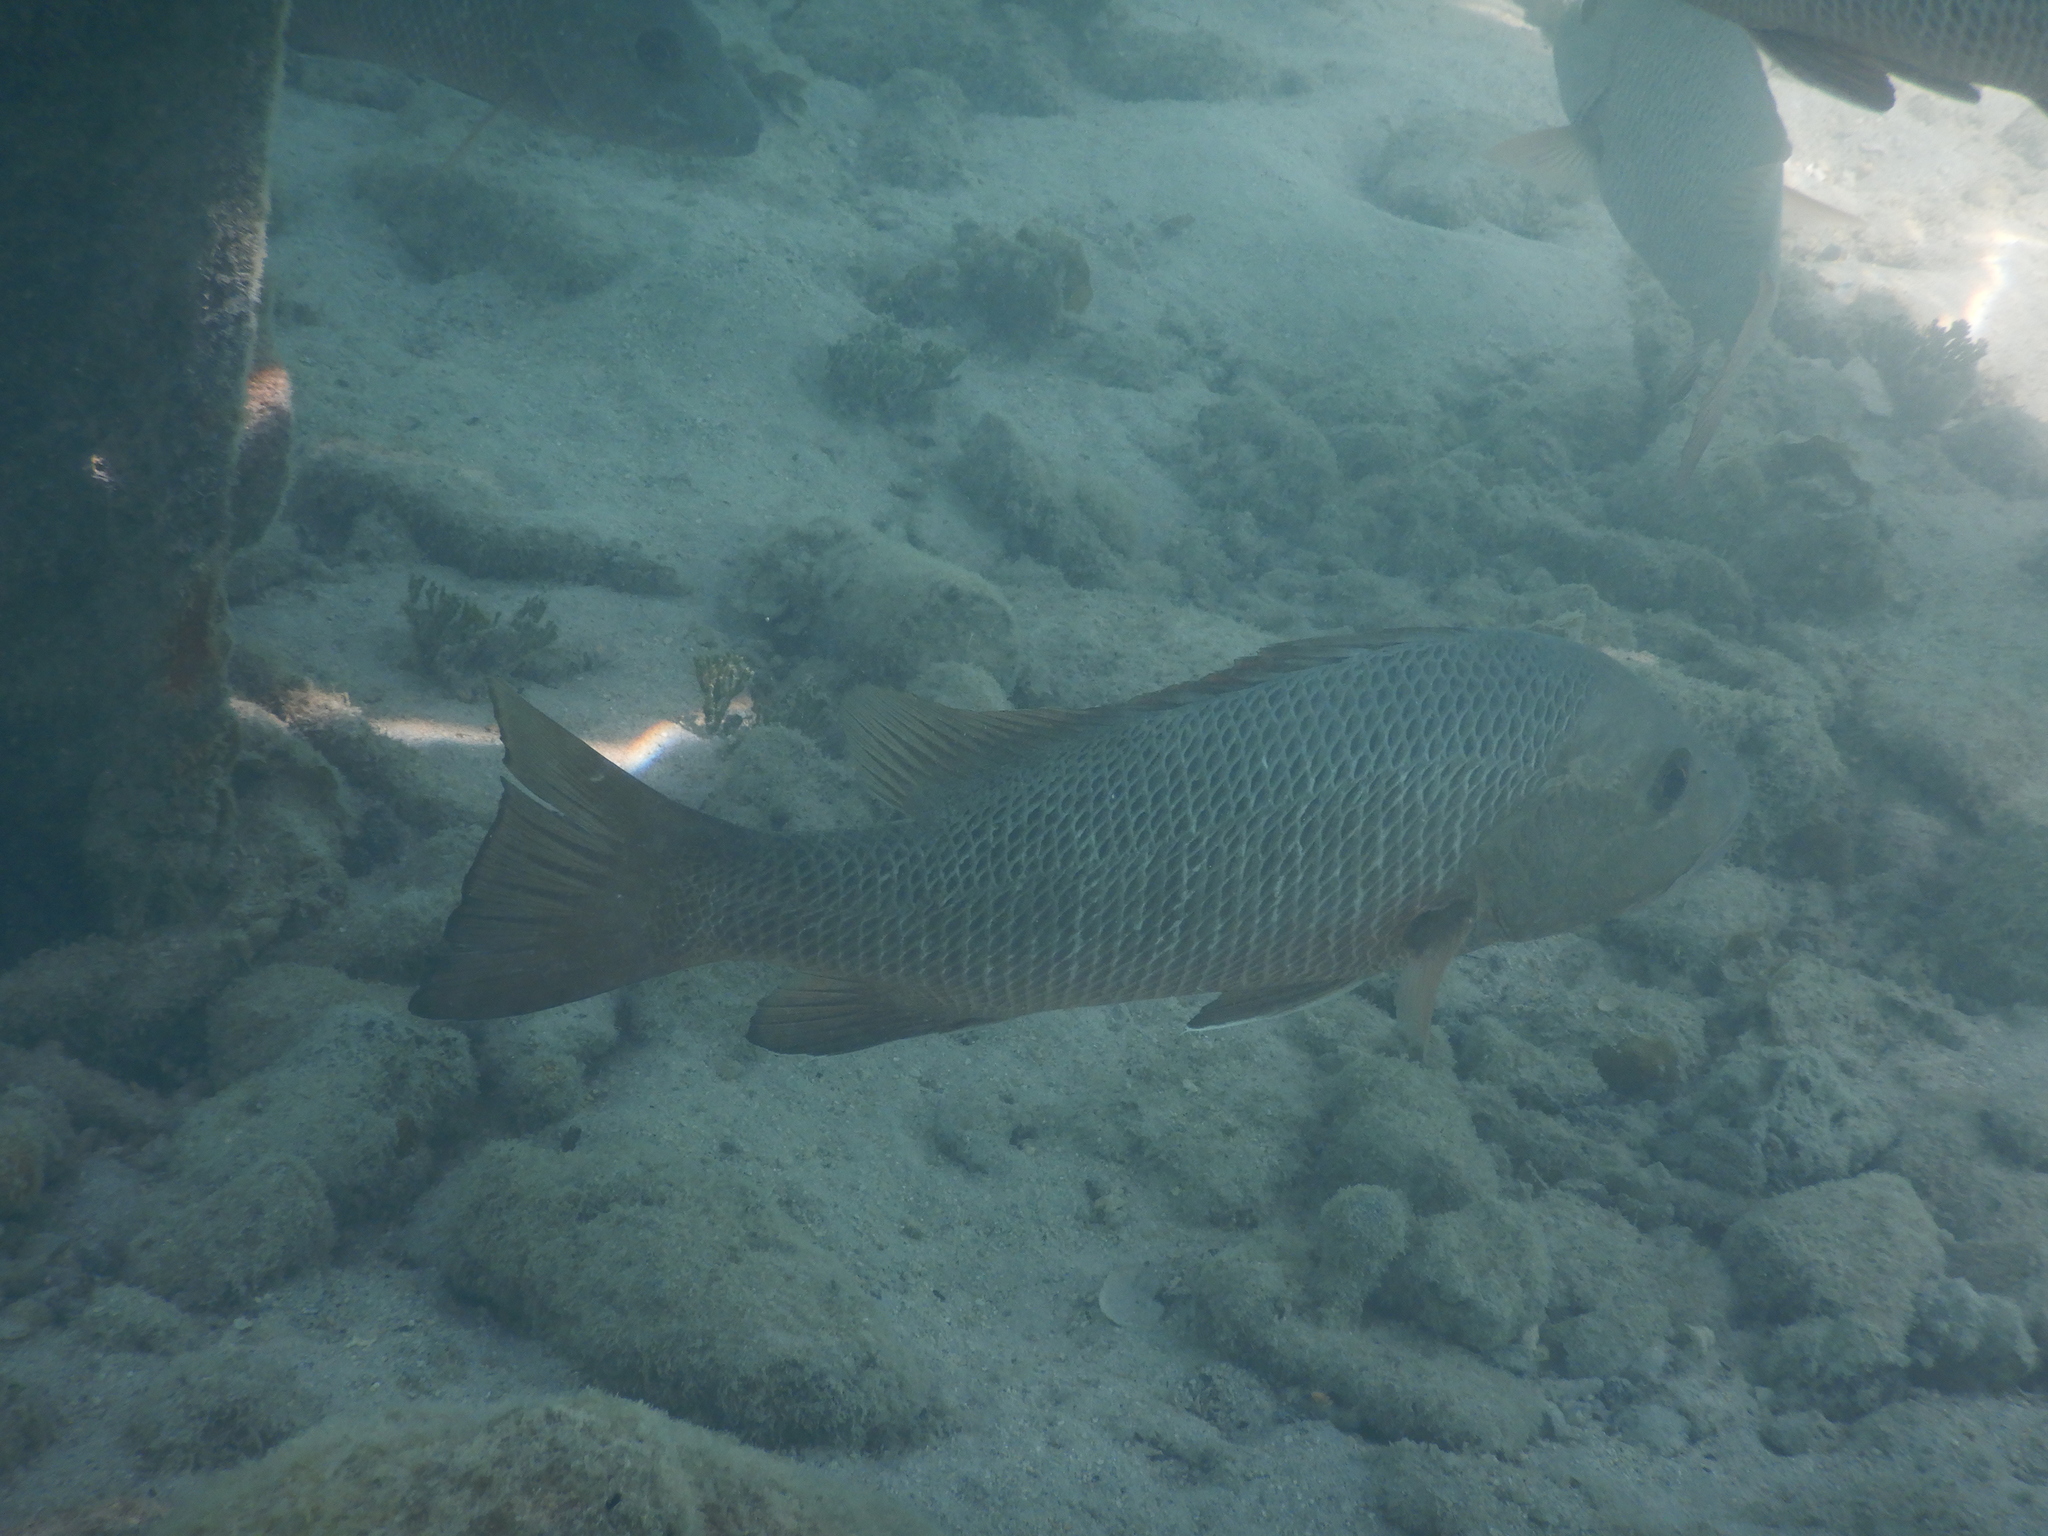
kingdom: Animalia
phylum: Chordata
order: Perciformes
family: Lutjanidae
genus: Lutjanus
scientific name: Lutjanus argentimaculatus
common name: Mangrove red snapper
